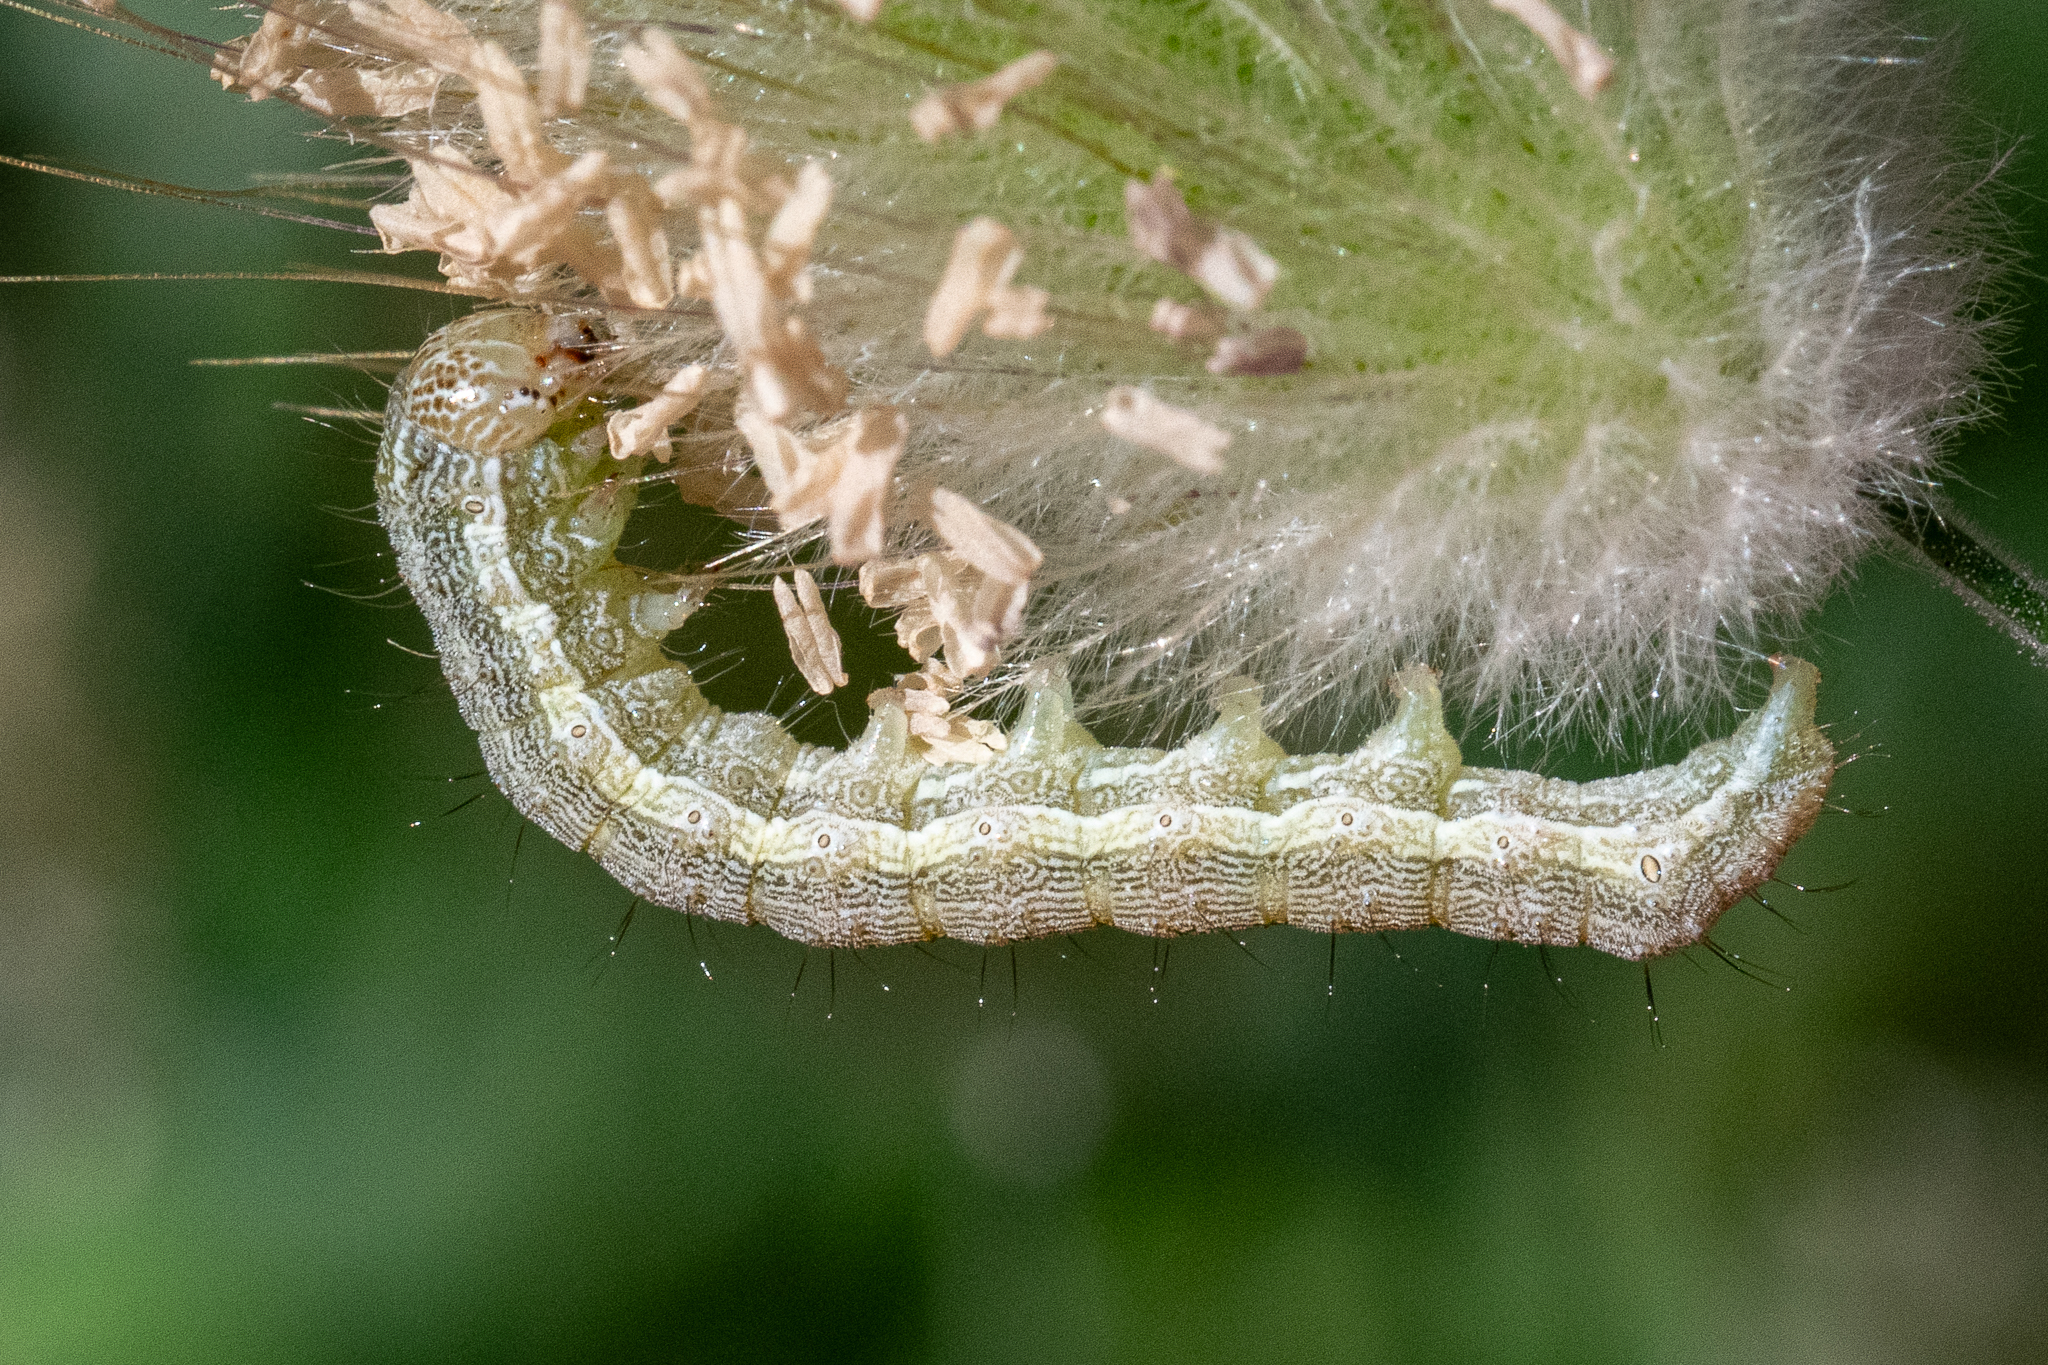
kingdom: Animalia
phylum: Arthropoda
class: Insecta
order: Lepidoptera
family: Noctuidae
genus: Helicoverpa
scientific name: Helicoverpa armigera
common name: Cotton bollworm
